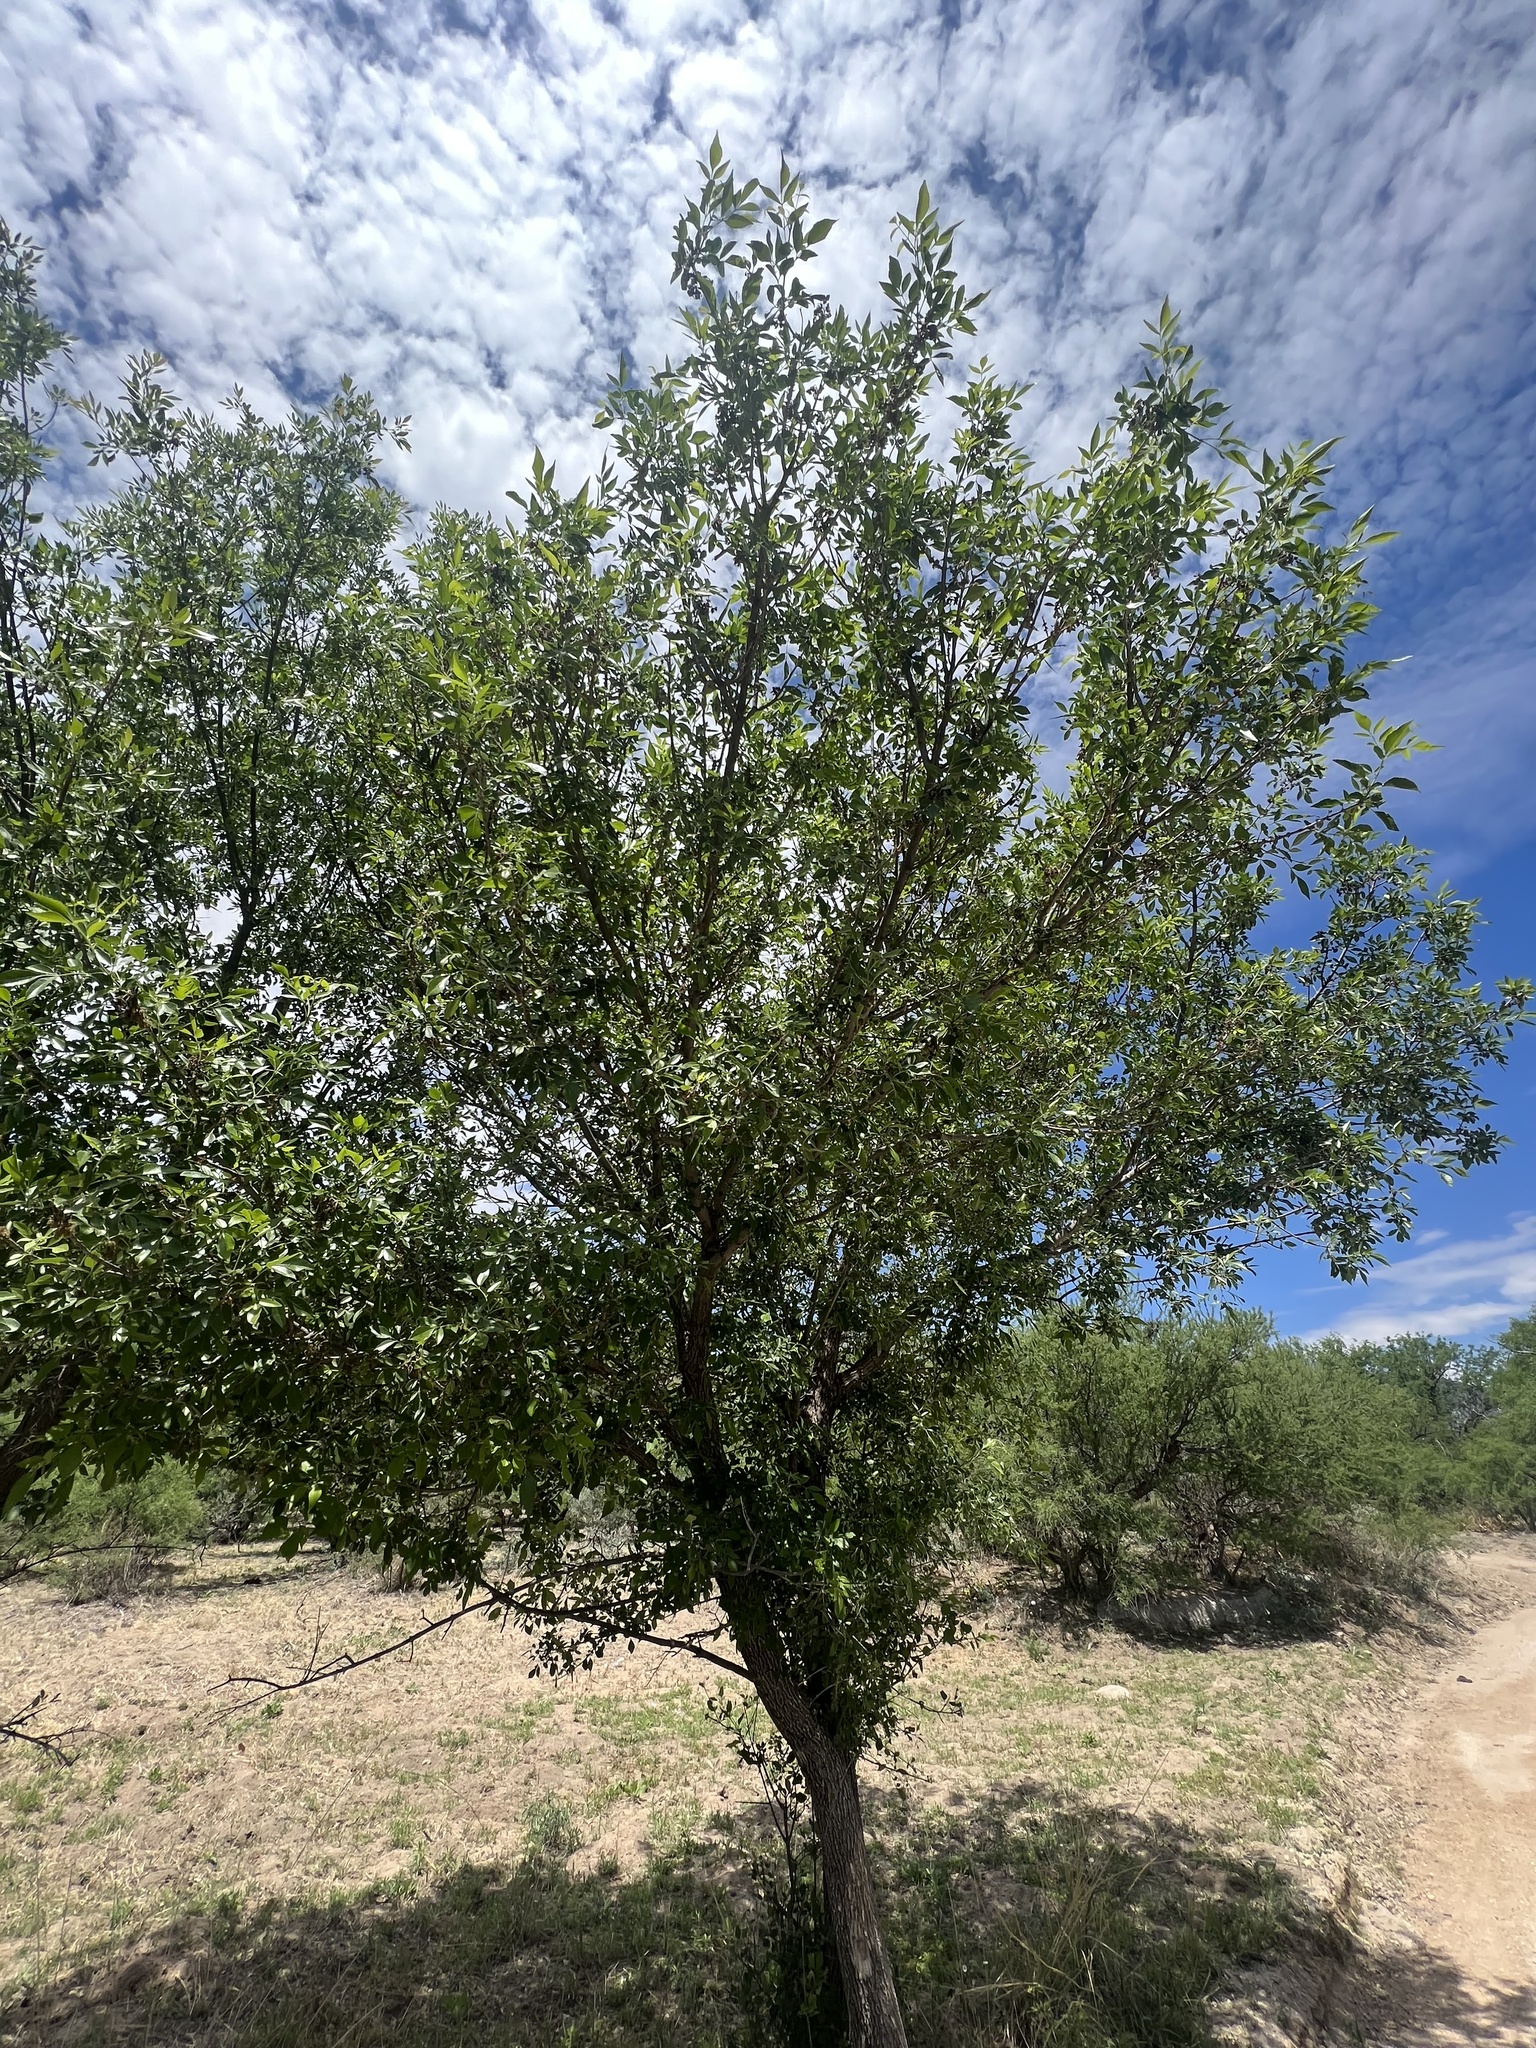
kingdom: Plantae
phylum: Tracheophyta
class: Magnoliopsida
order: Lamiales
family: Oleaceae
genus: Fraxinus
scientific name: Fraxinus velutina
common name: Arizon ash
